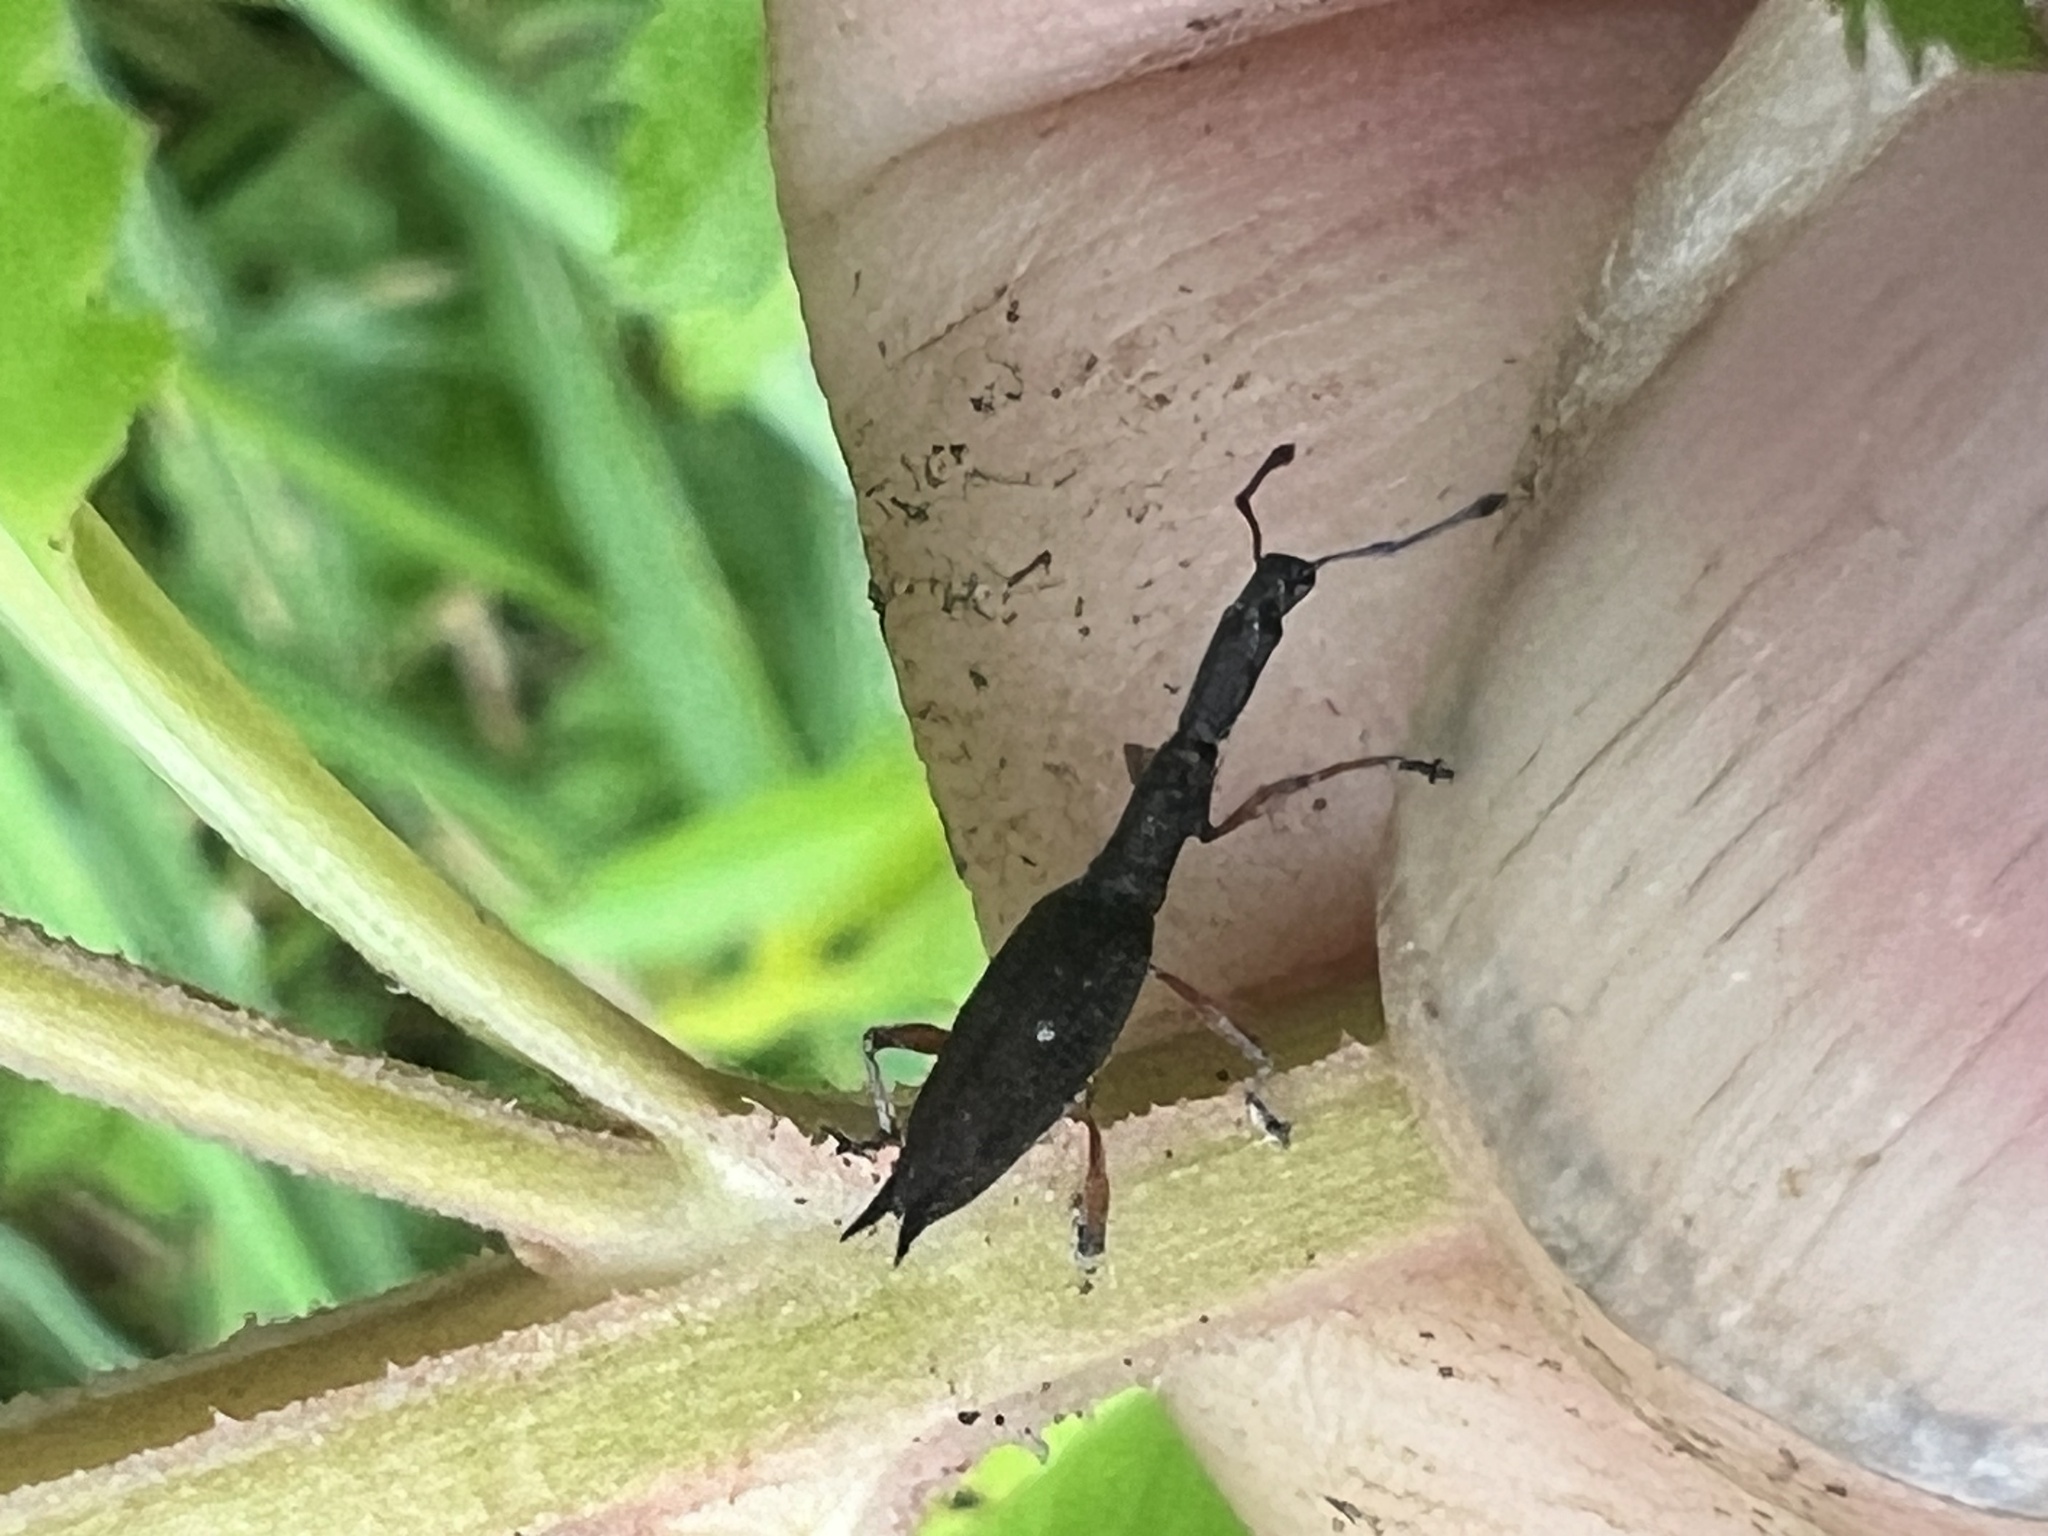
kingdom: Animalia
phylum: Arthropoda
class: Insecta
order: Coleoptera
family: Curculionidae
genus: Rhadinosomus
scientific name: Rhadinosomus acuminatus
